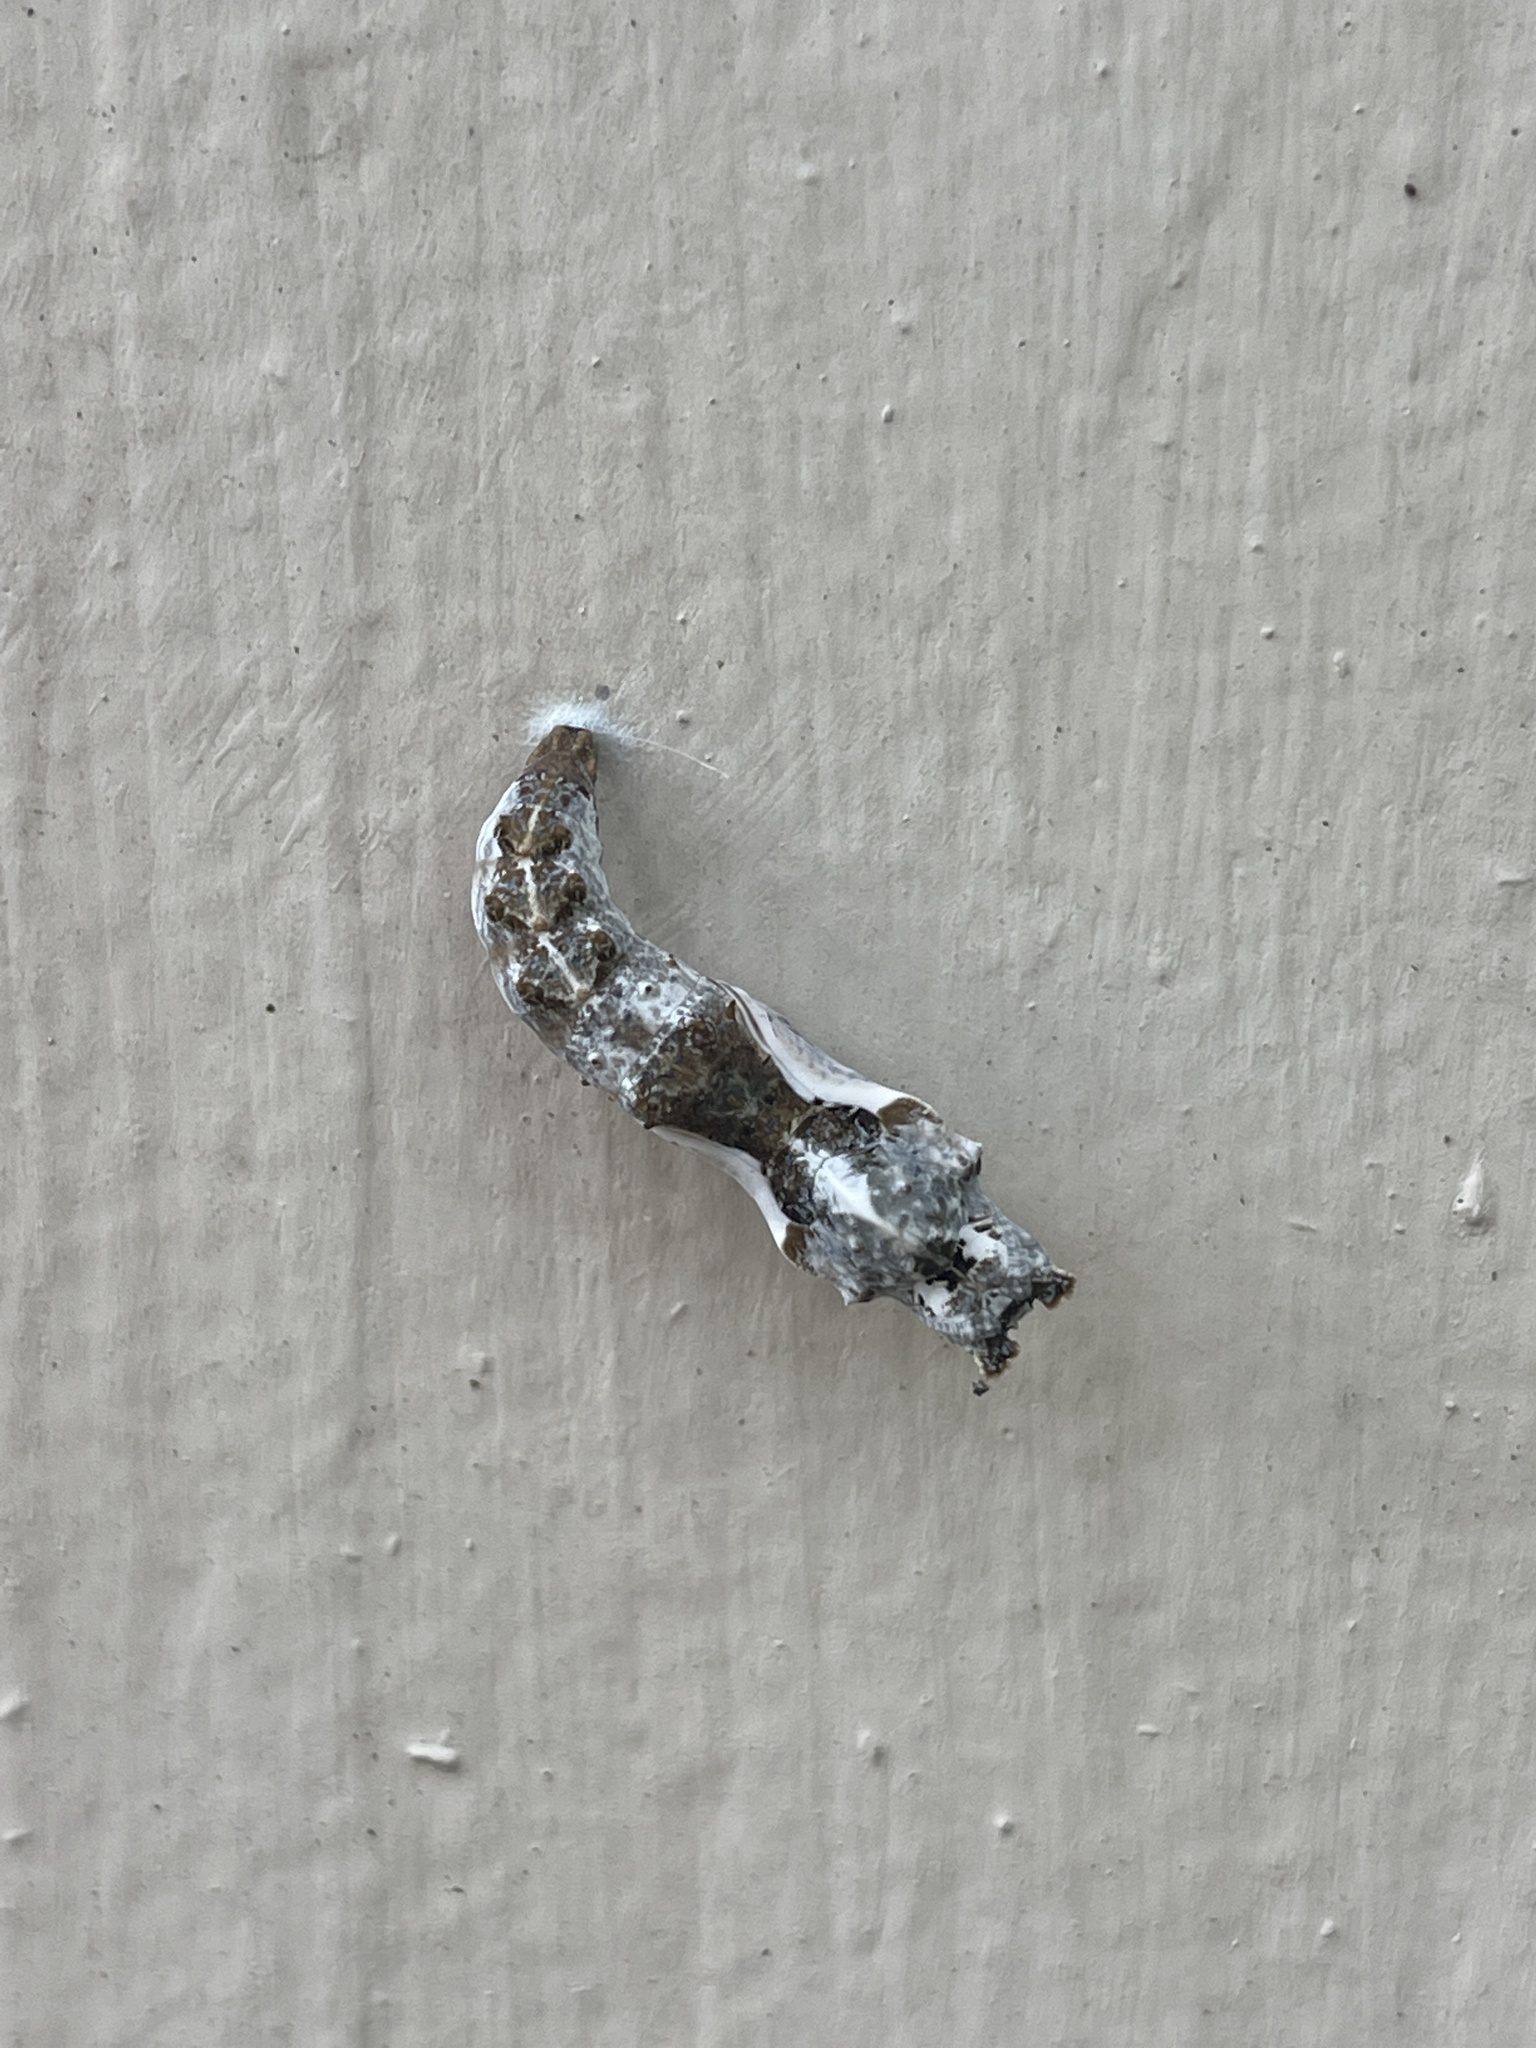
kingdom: Animalia
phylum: Arthropoda
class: Insecta
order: Lepidoptera
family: Nymphalidae
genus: Dione
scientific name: Dione vanillae
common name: Gulf fritillary
